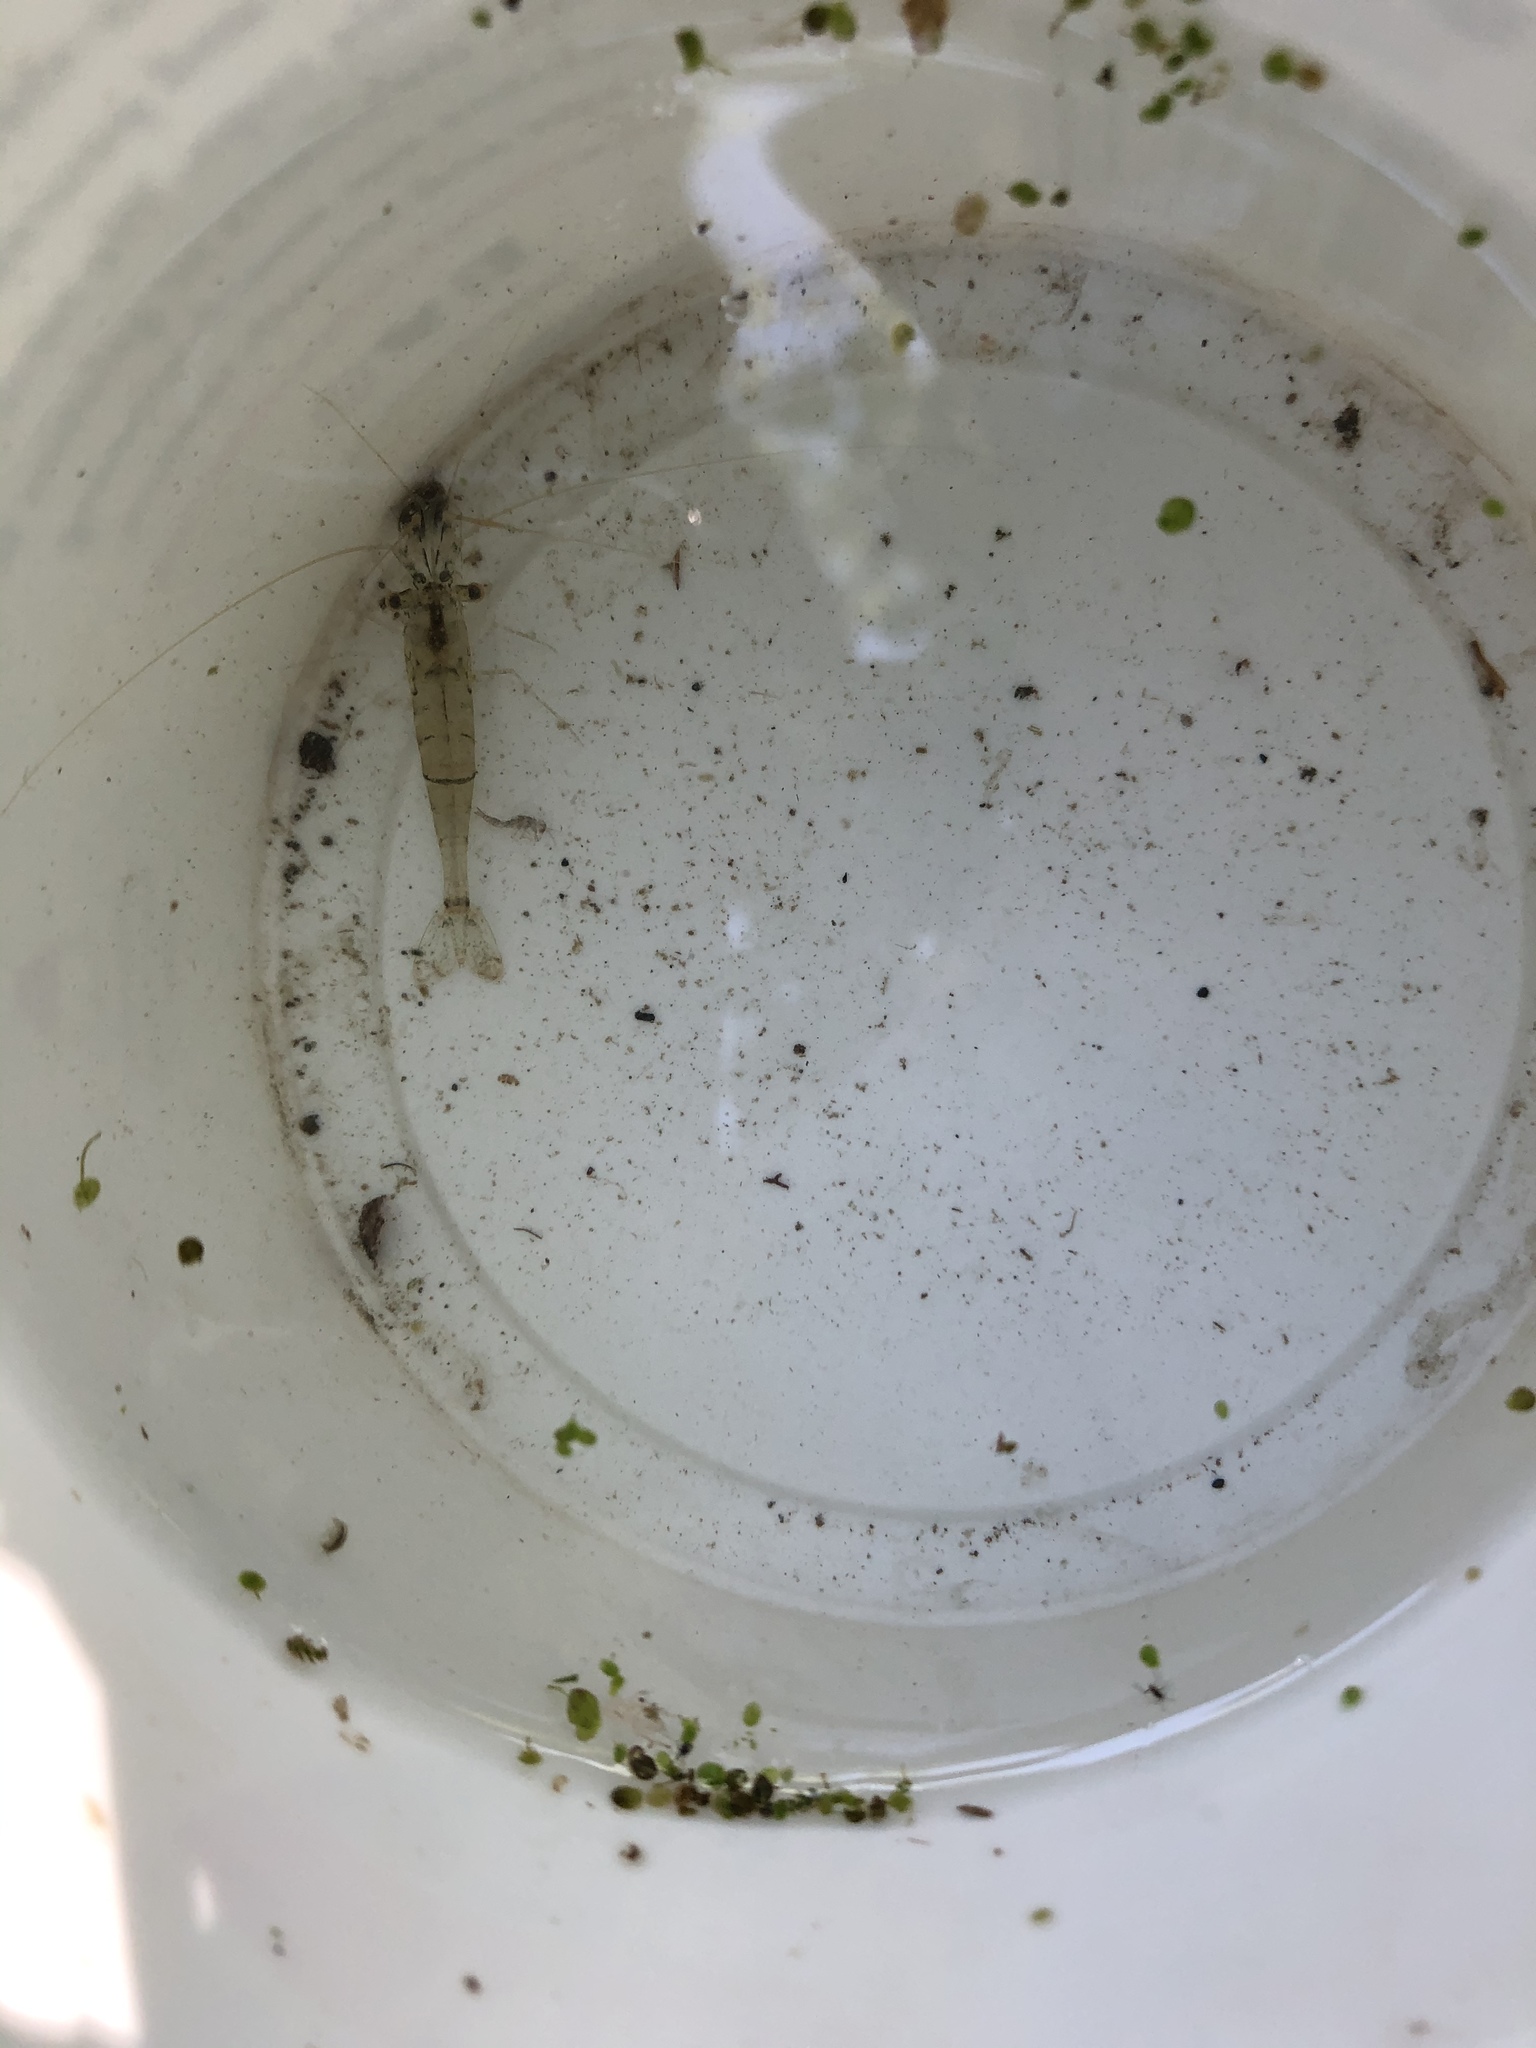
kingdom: Animalia
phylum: Arthropoda
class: Malacostraca
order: Decapoda
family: Palaemonidae
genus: Palaemon
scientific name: Palaemon paludosus
